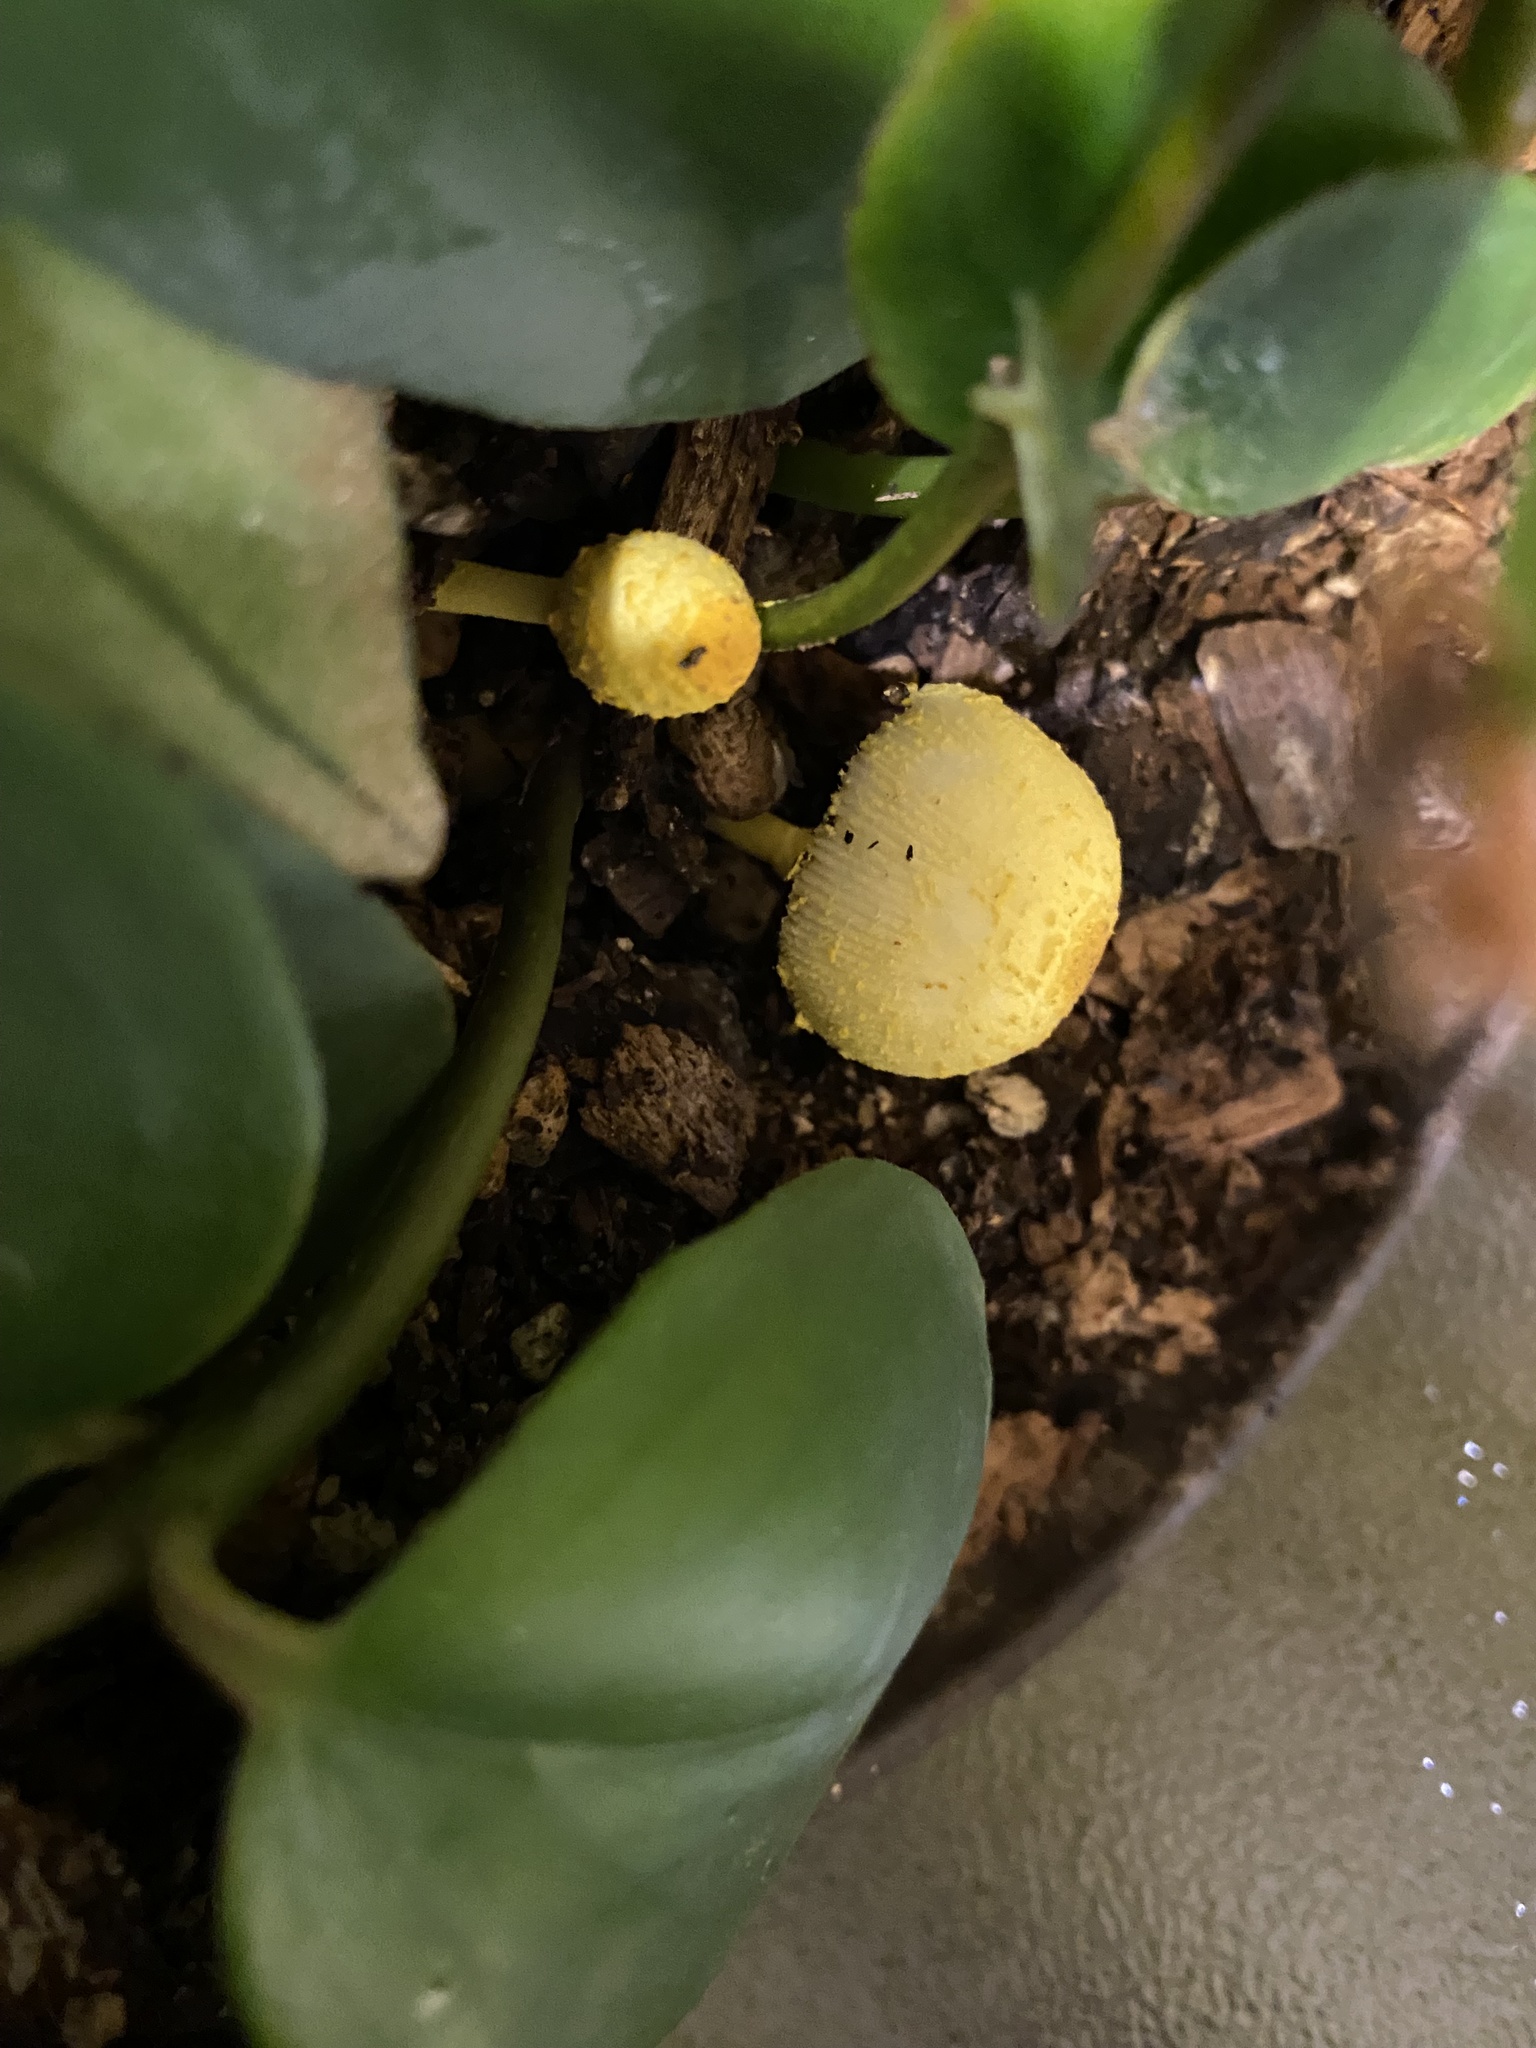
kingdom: Fungi
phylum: Basidiomycota
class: Agaricomycetes
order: Agaricales
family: Agaricaceae
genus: Leucocoprinus
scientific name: Leucocoprinus birnbaumii
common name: Plantpot dapperling
